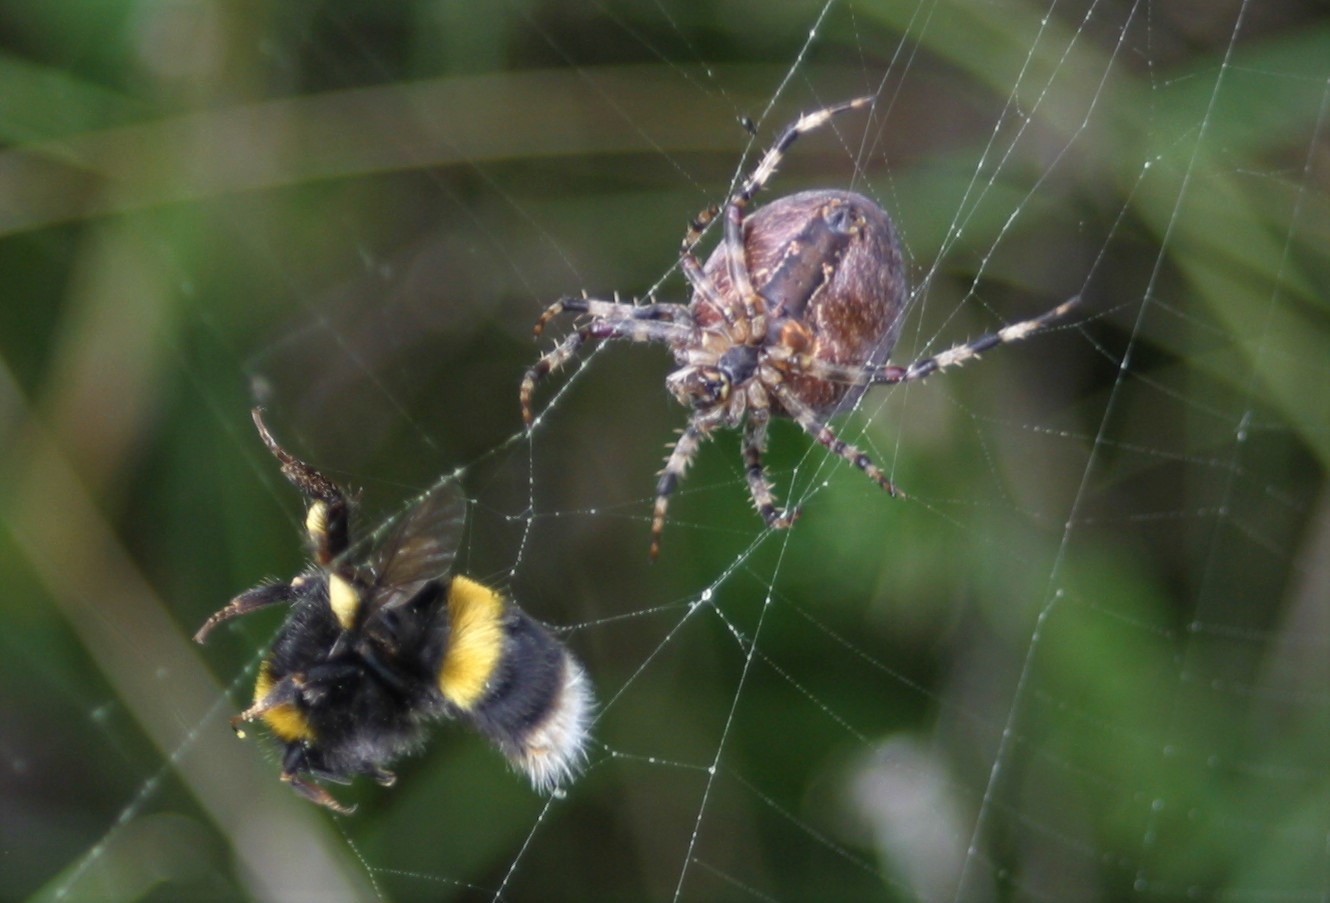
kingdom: Animalia
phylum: Arthropoda
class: Arachnida
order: Araneae
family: Araneidae
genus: Araneus
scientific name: Araneus diadematus
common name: Cross orbweaver
